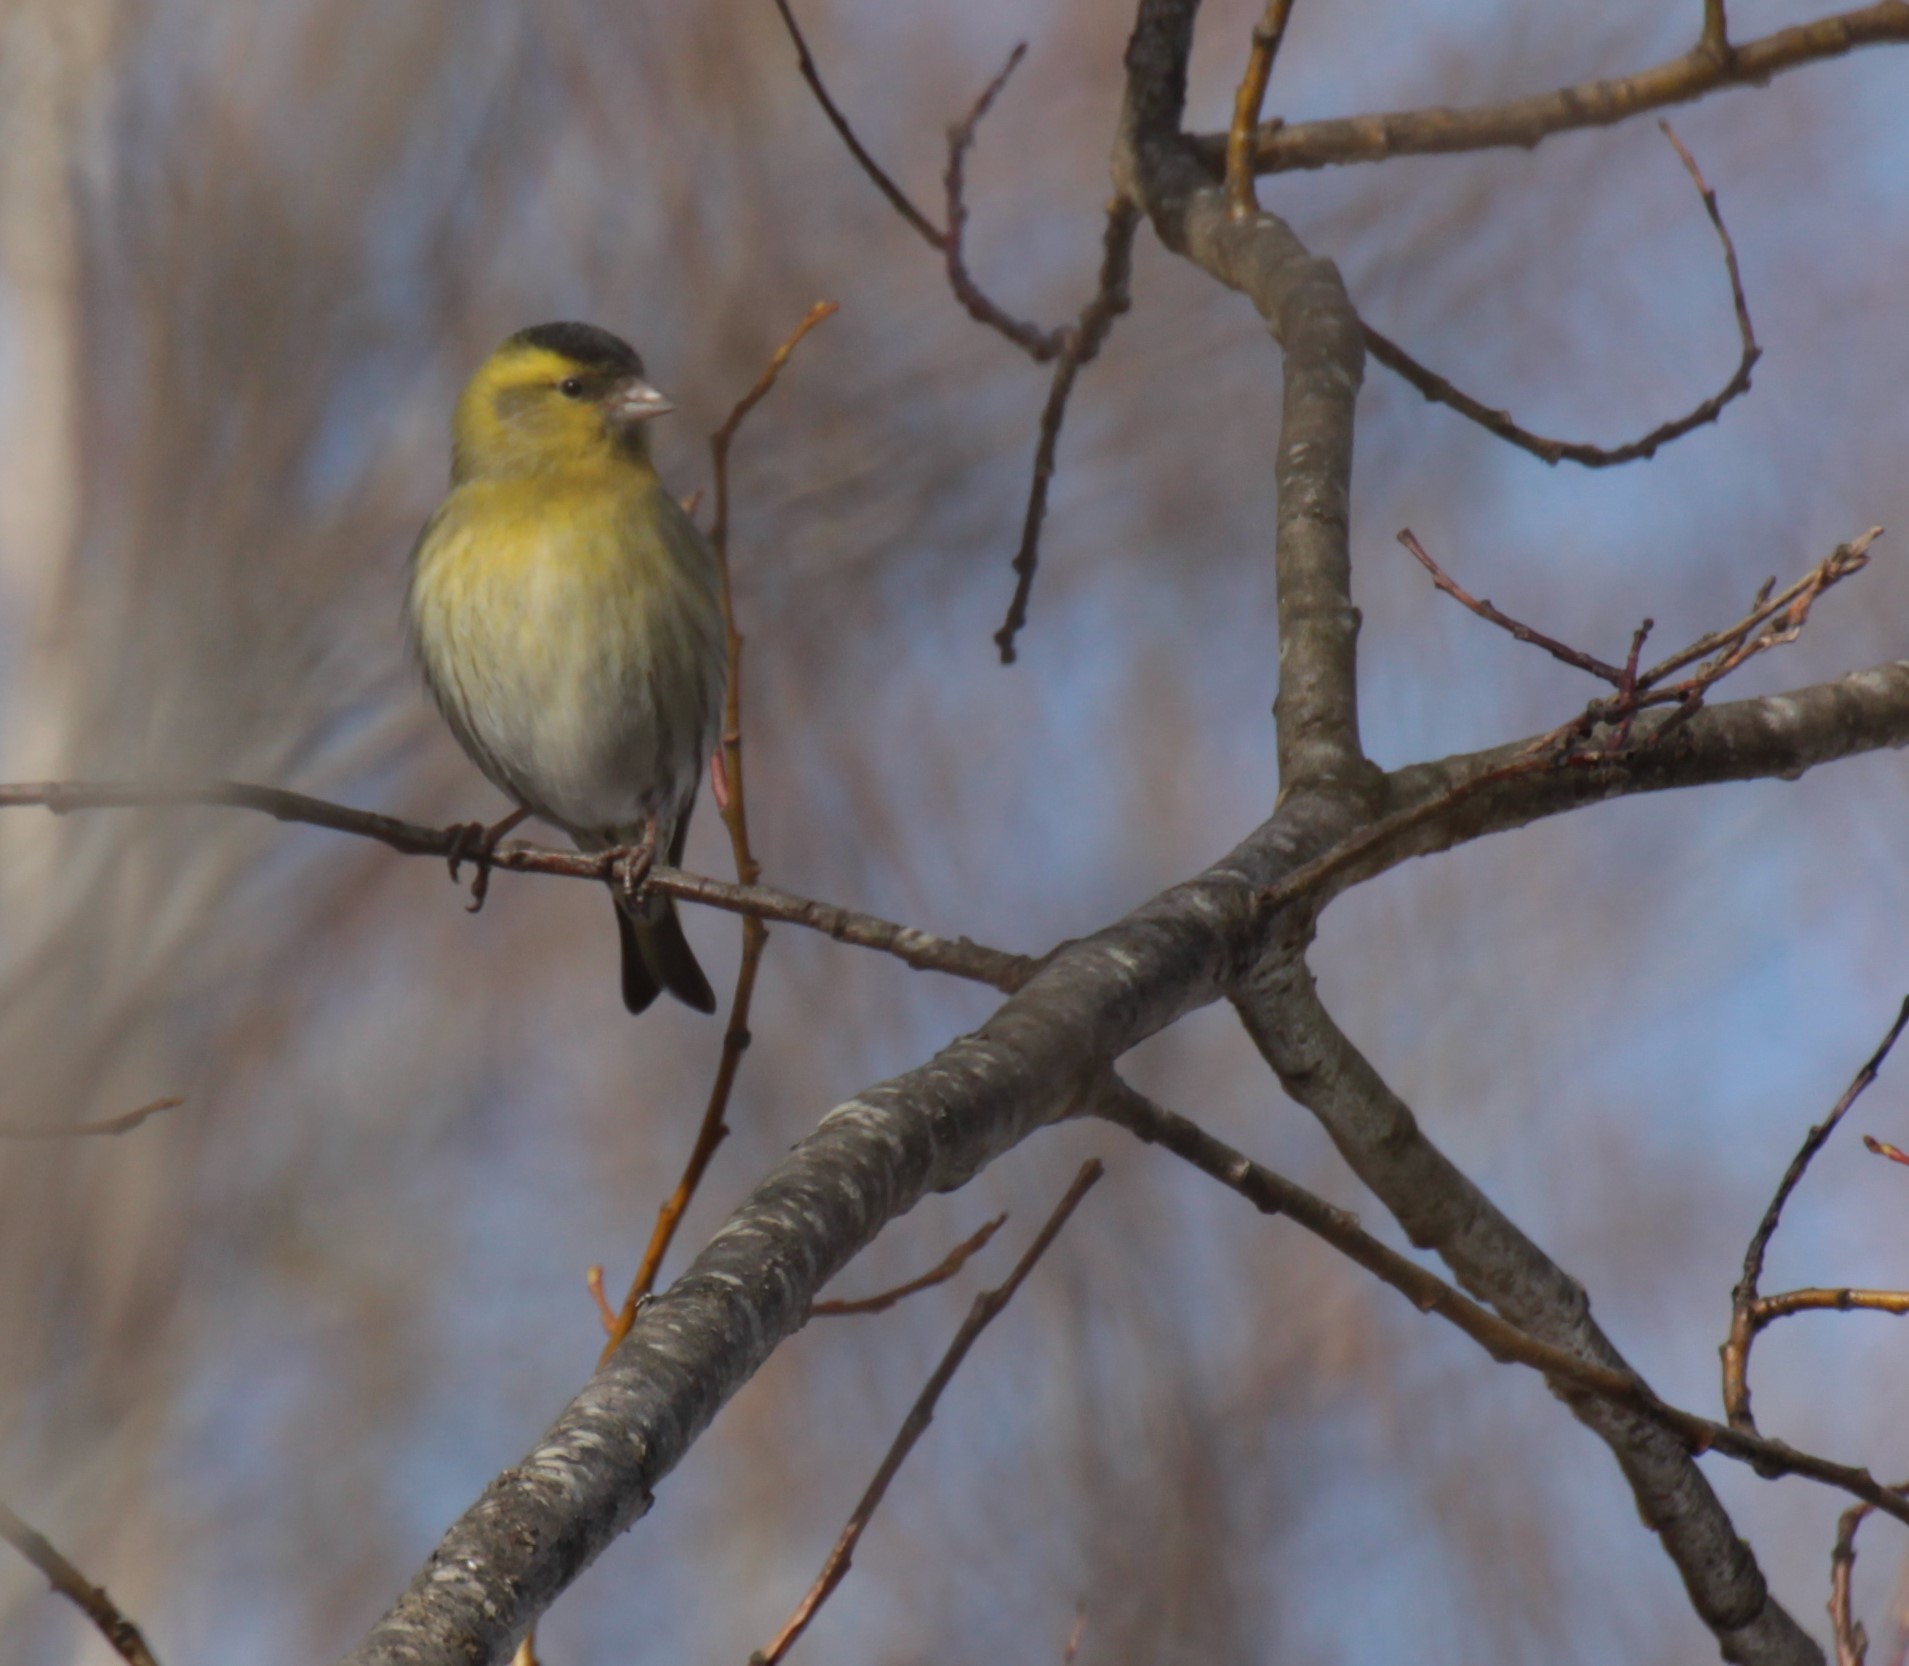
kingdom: Animalia
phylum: Chordata
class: Aves
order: Passeriformes
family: Fringillidae
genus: Spinus
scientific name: Spinus spinus
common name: Eurasian siskin
